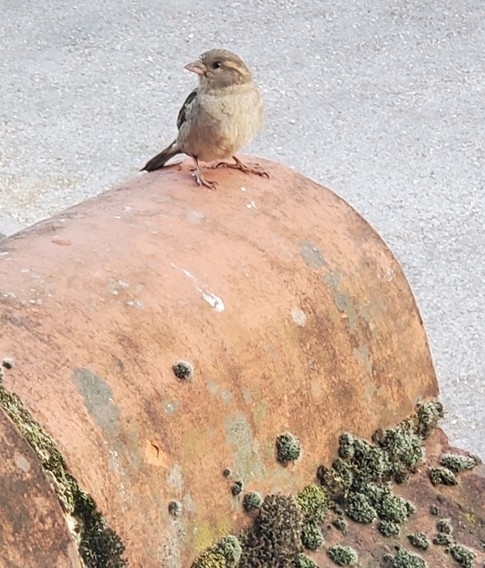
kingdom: Animalia
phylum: Chordata
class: Aves
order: Passeriformes
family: Passeridae
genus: Passer
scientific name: Passer domesticus
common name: House sparrow
